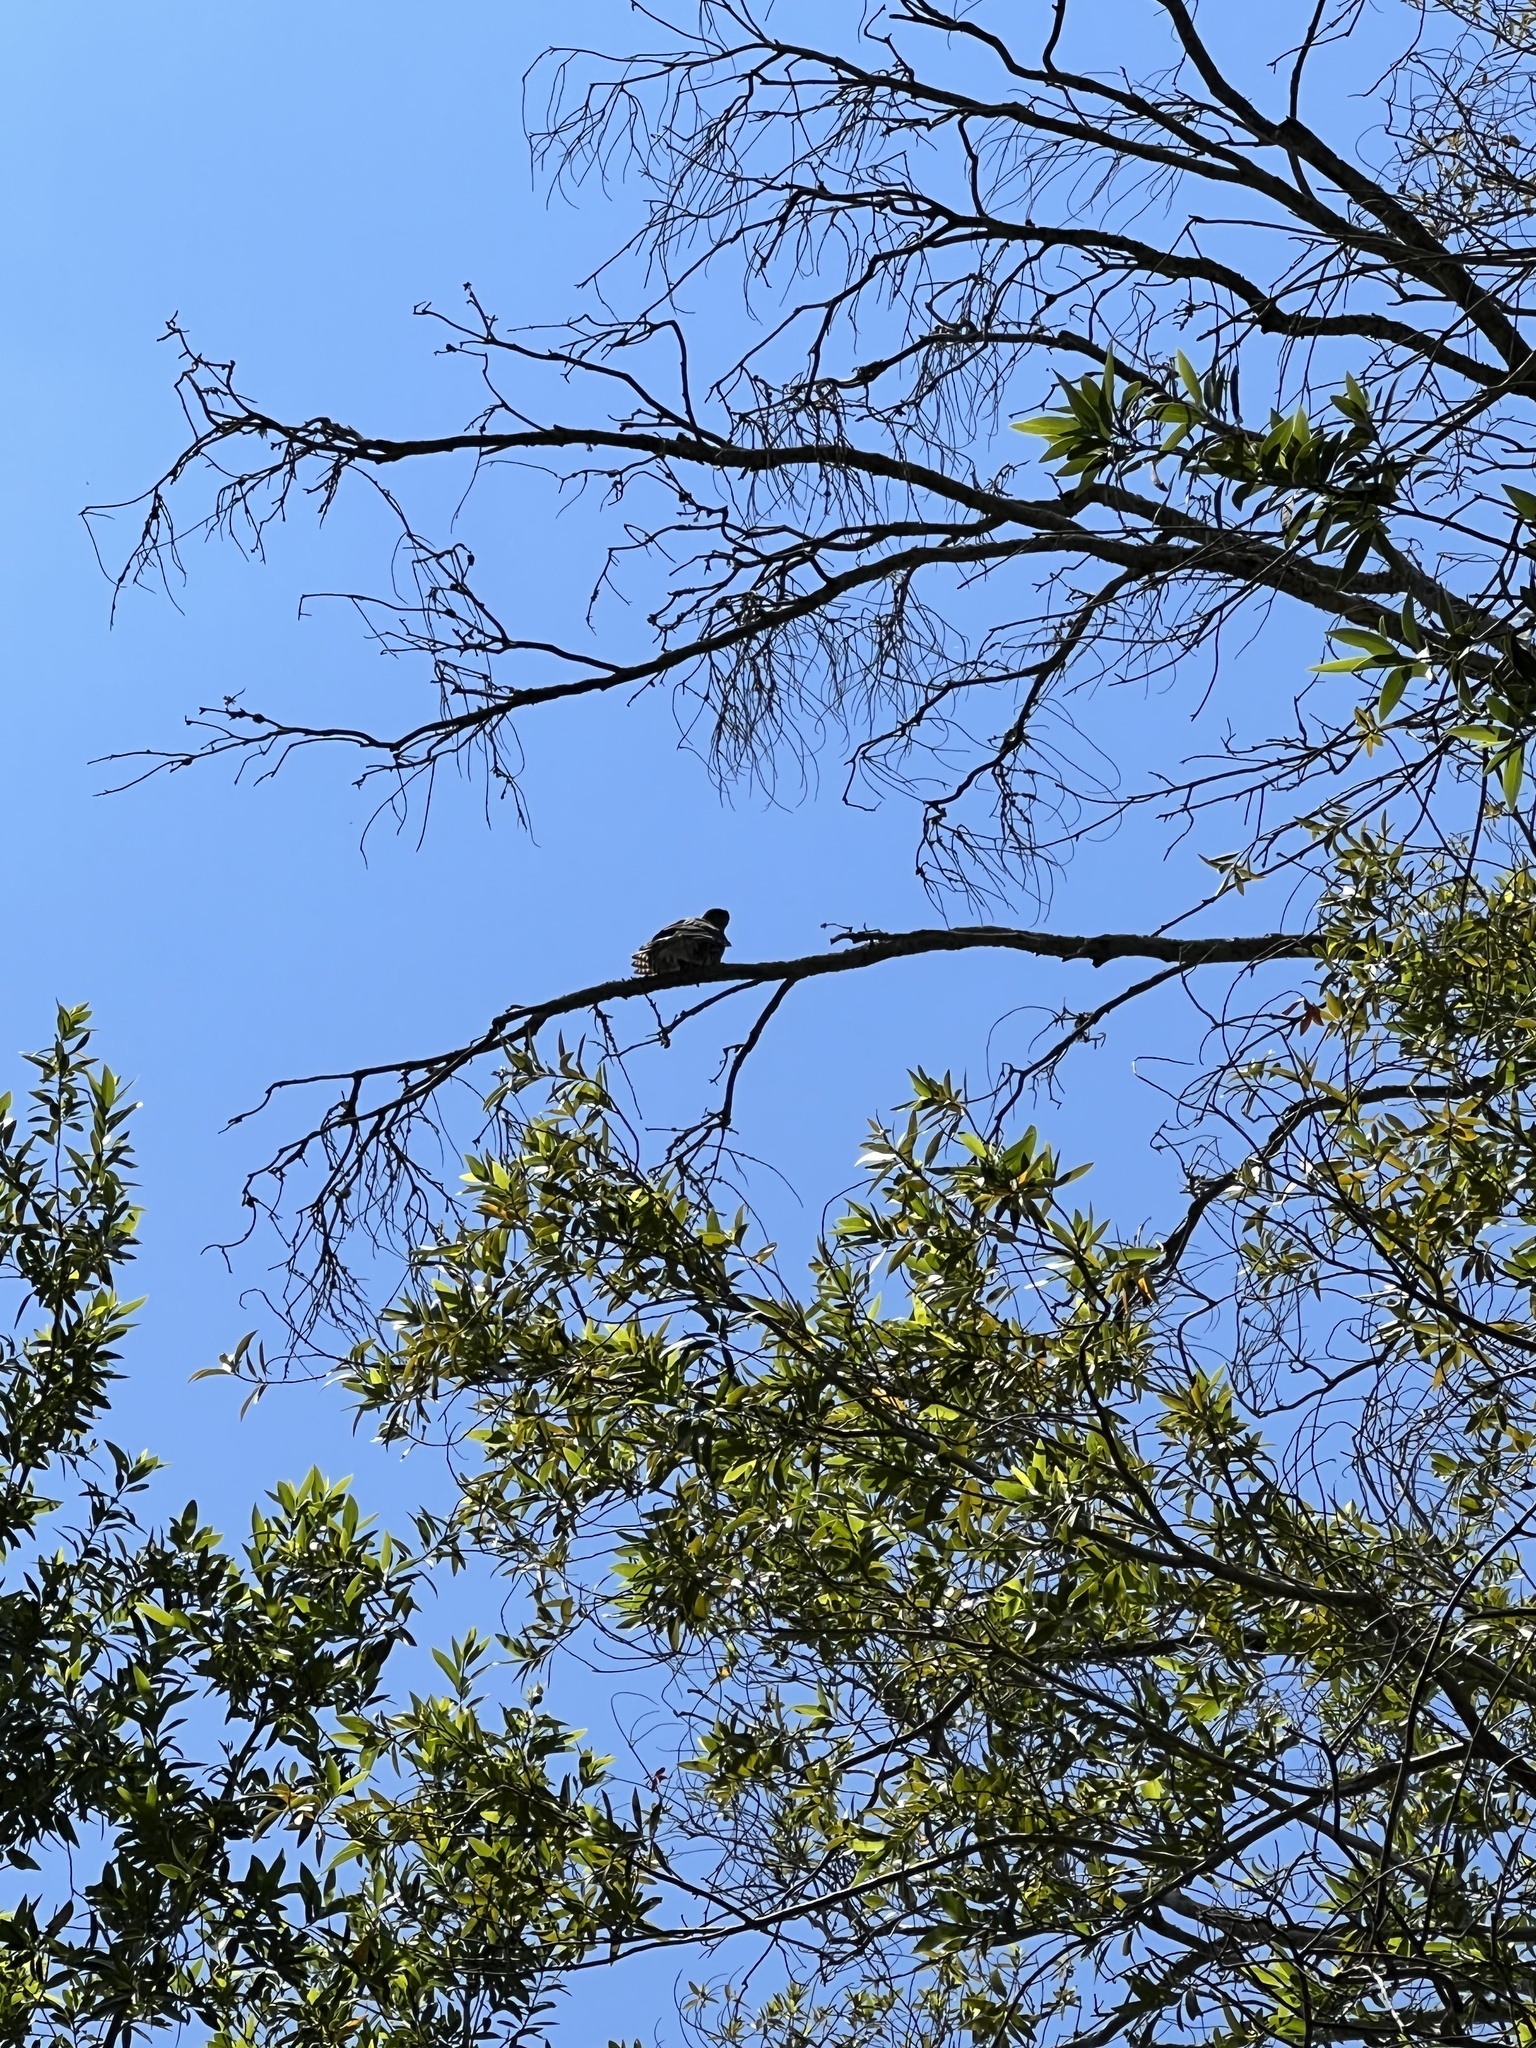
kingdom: Animalia
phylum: Chordata
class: Aves
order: Accipitriformes
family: Accipitridae
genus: Accipiter
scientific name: Accipiter cooperii
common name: Cooper's hawk
